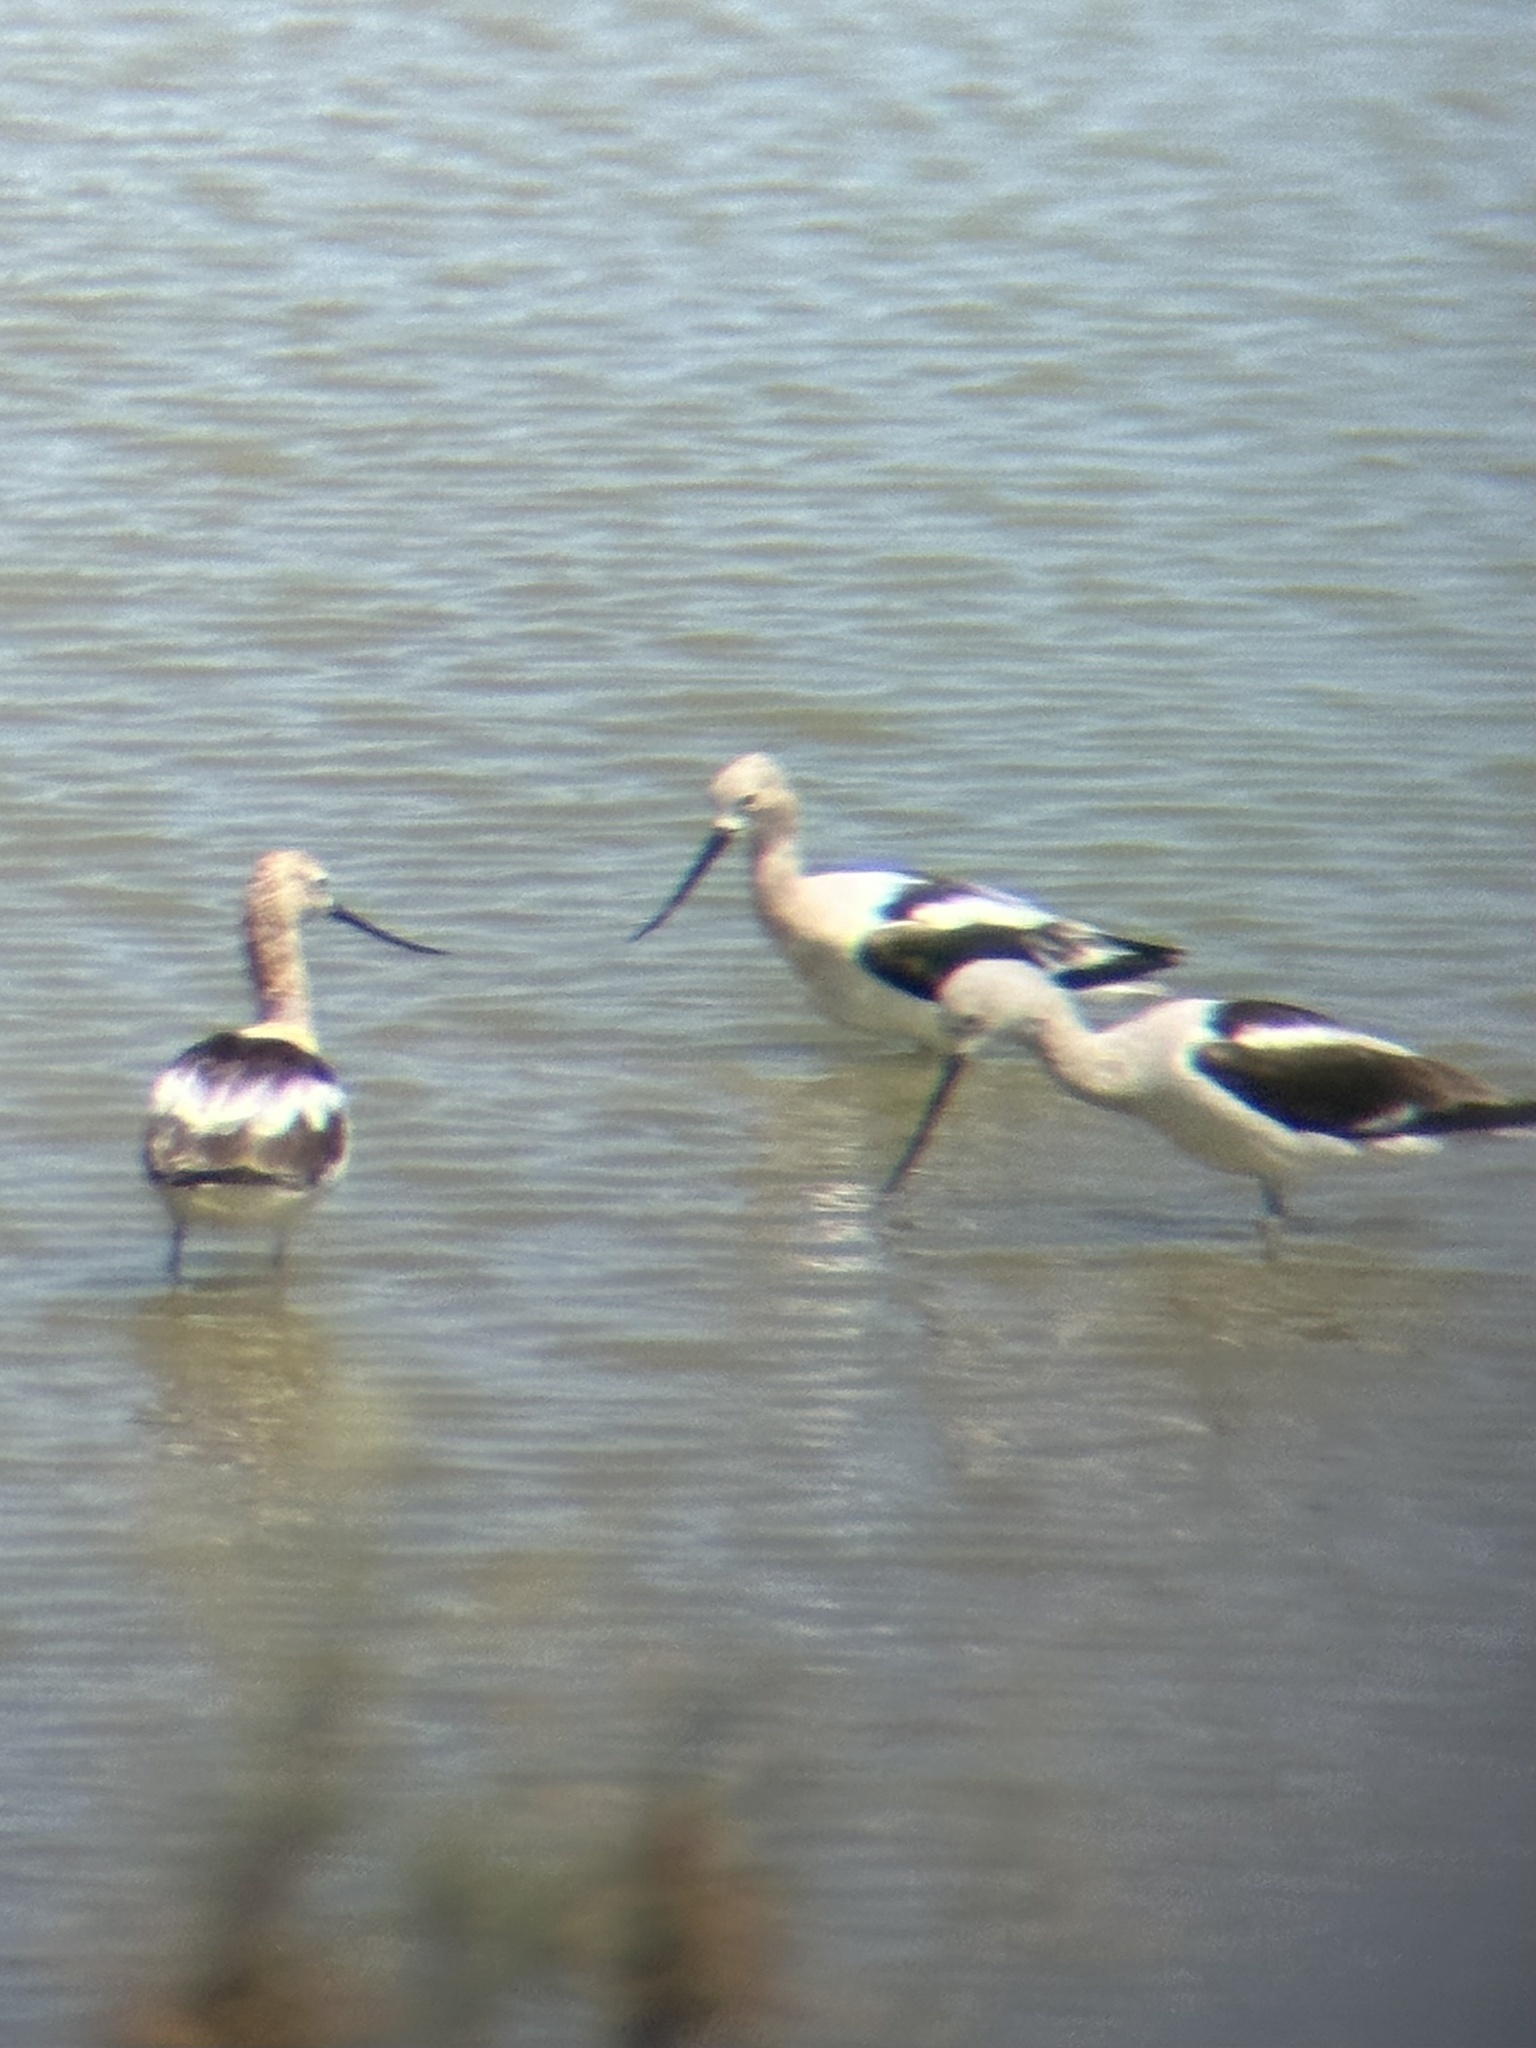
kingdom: Animalia
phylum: Chordata
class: Aves
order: Charadriiformes
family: Recurvirostridae
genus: Recurvirostra
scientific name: Recurvirostra americana
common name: American avocet
